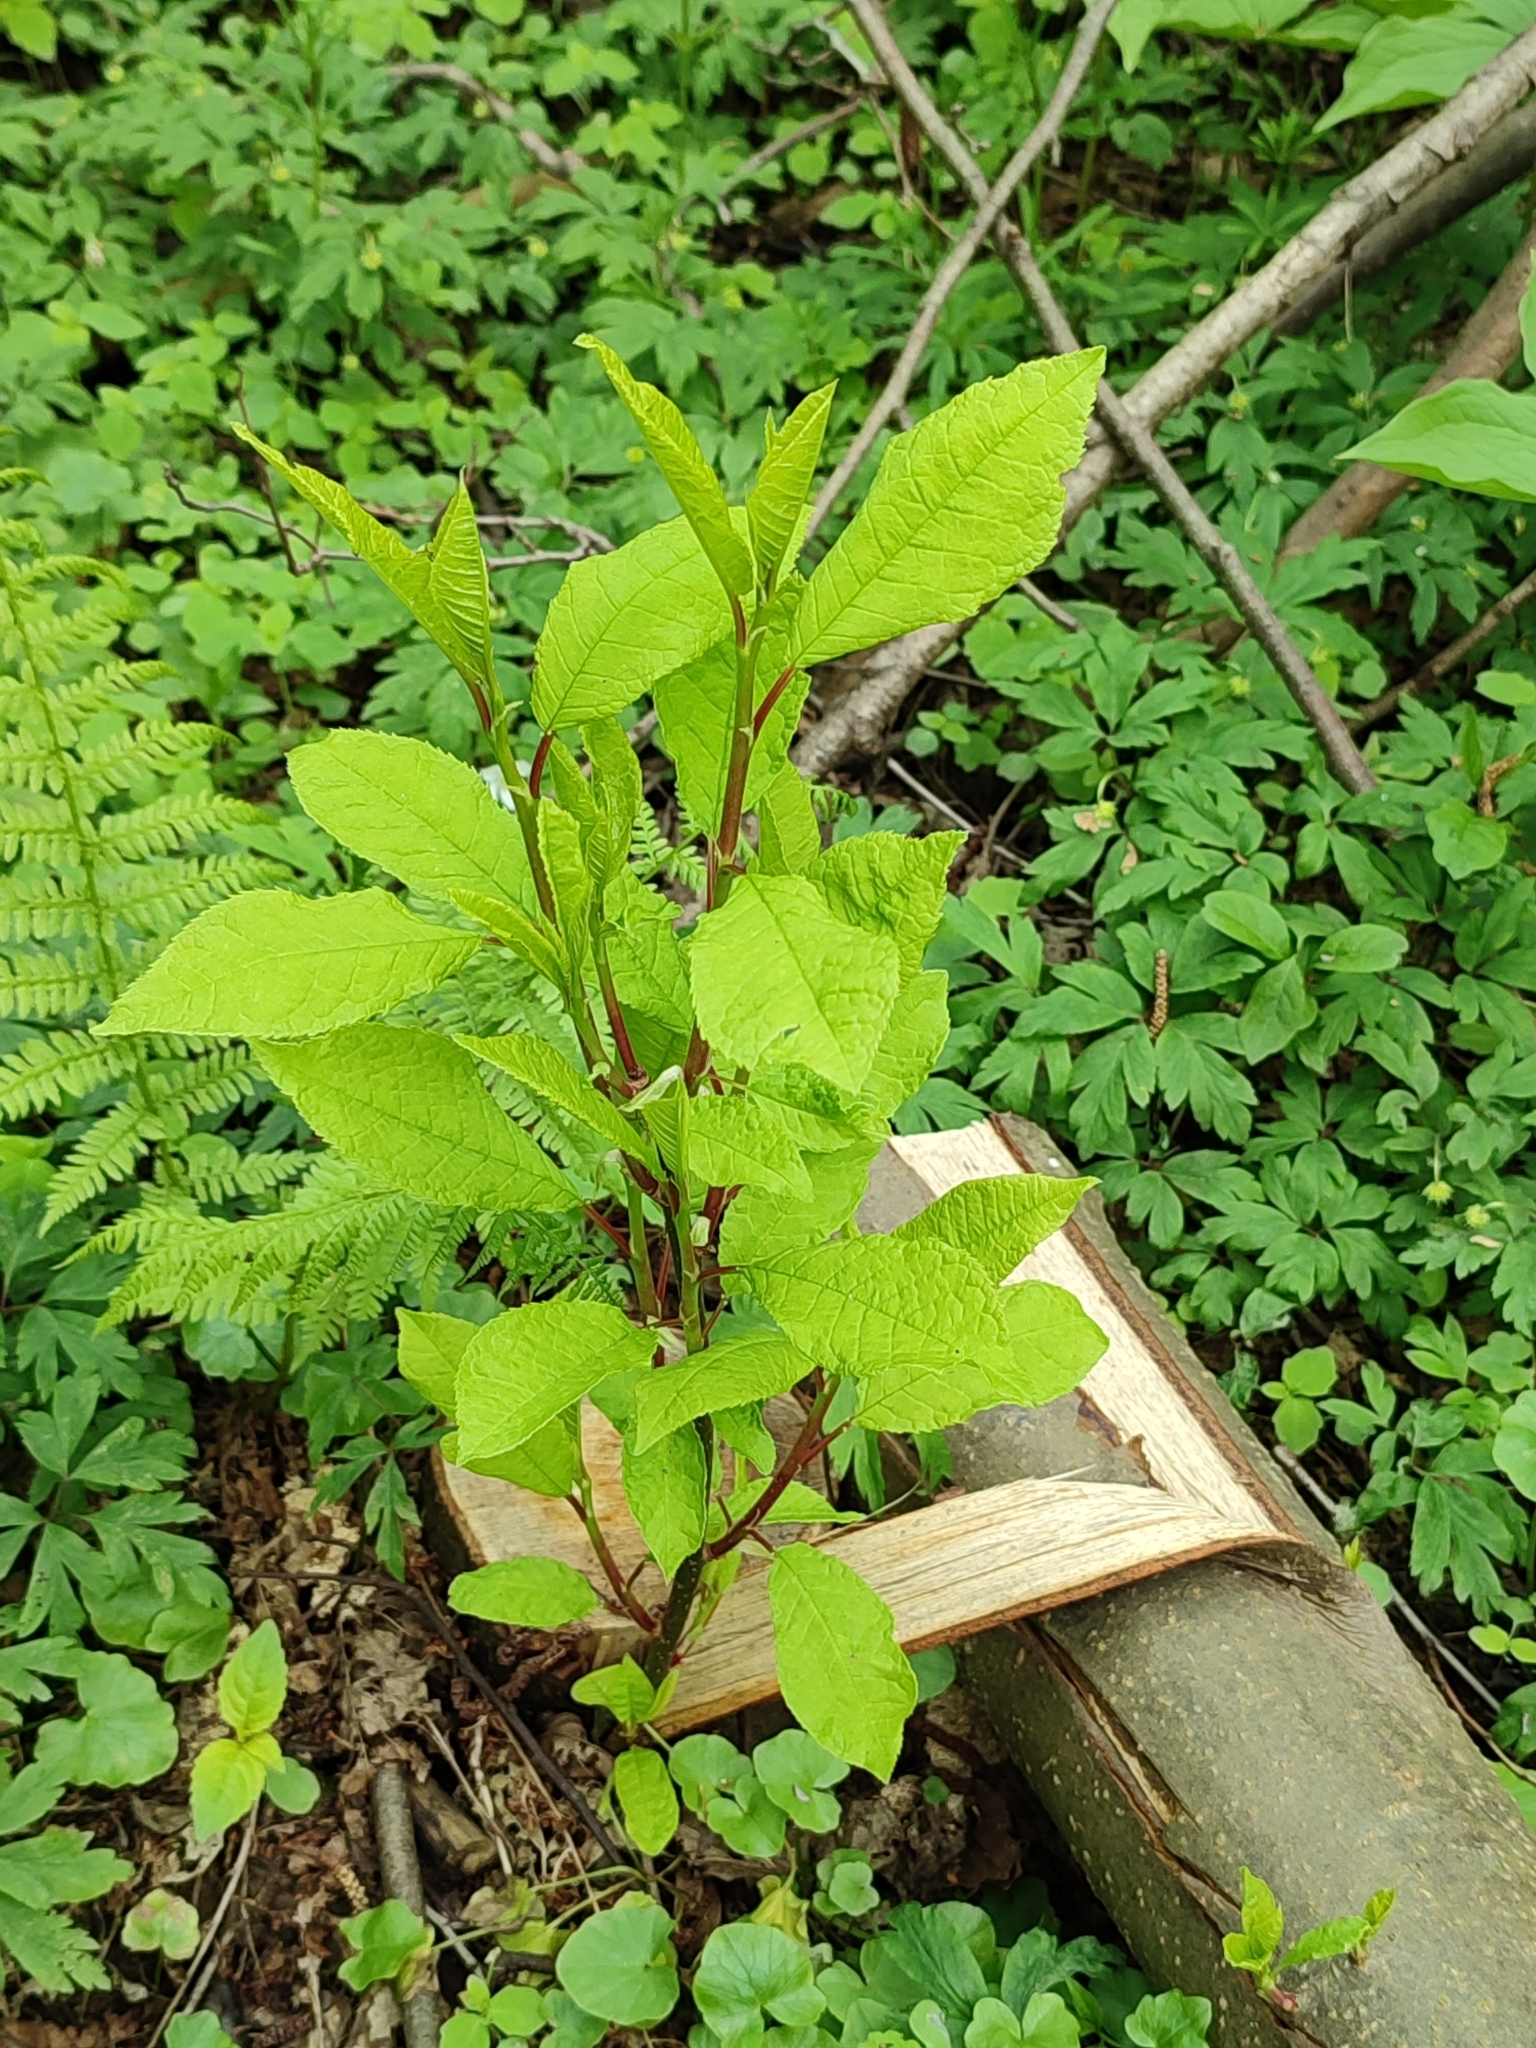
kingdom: Plantae
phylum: Tracheophyta
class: Magnoliopsida
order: Rosales
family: Rosaceae
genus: Prunus
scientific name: Prunus padus
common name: Bird cherry
